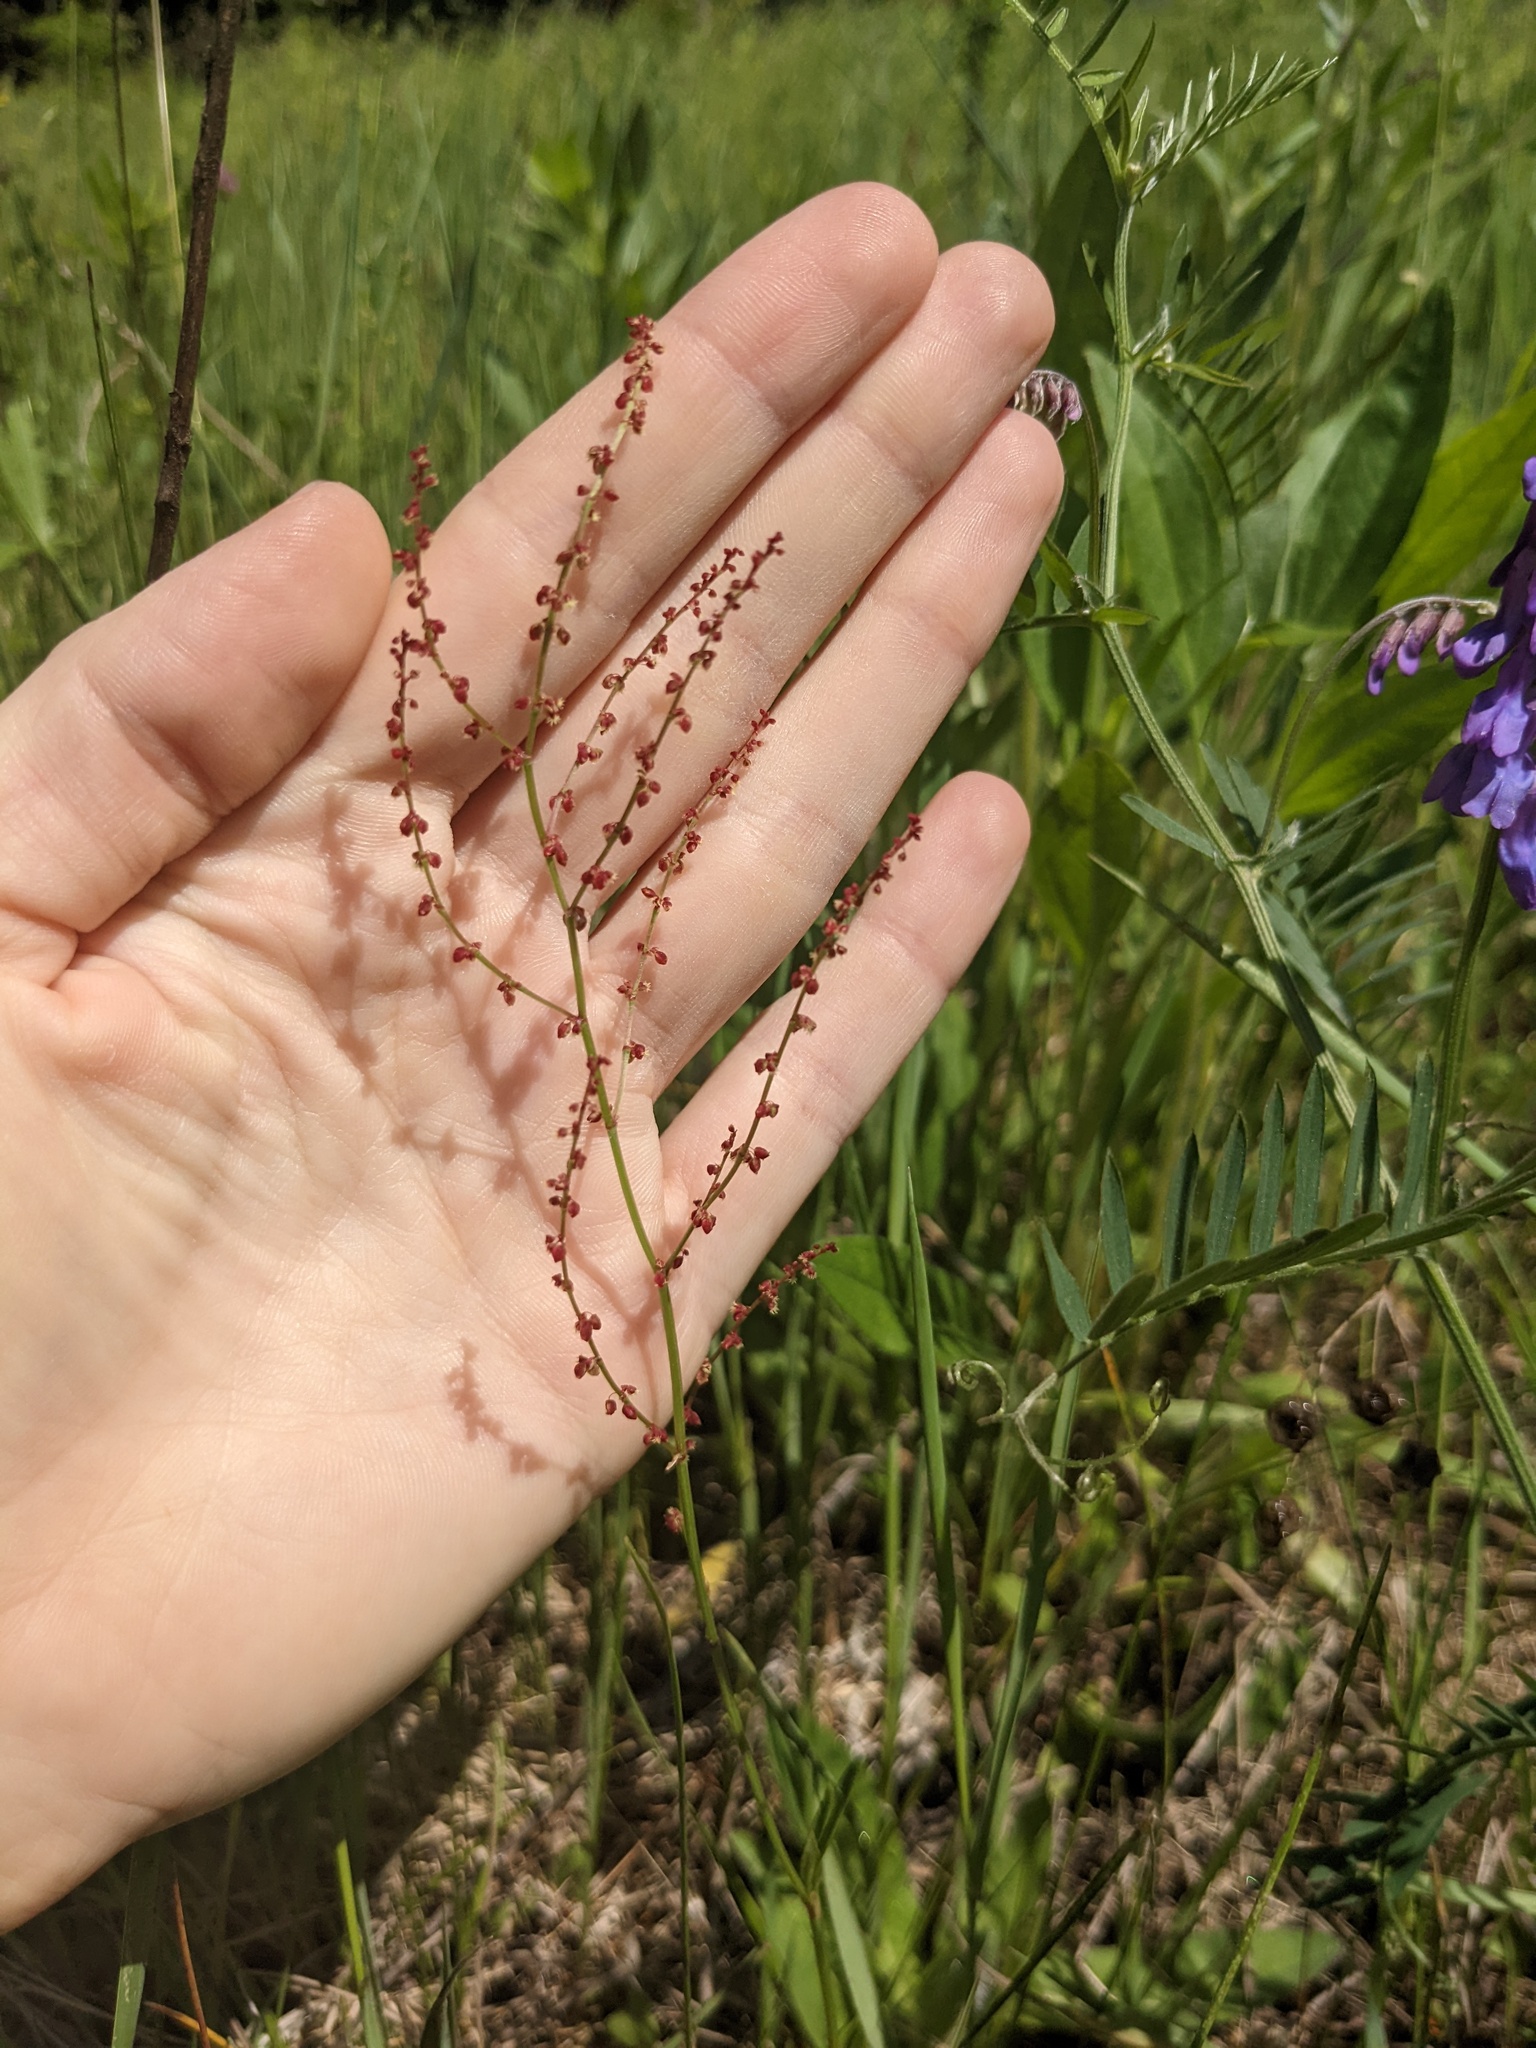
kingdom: Plantae
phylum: Tracheophyta
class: Magnoliopsida
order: Caryophyllales
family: Polygonaceae
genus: Rumex
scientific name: Rumex acetosella
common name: Common sheep sorrel
